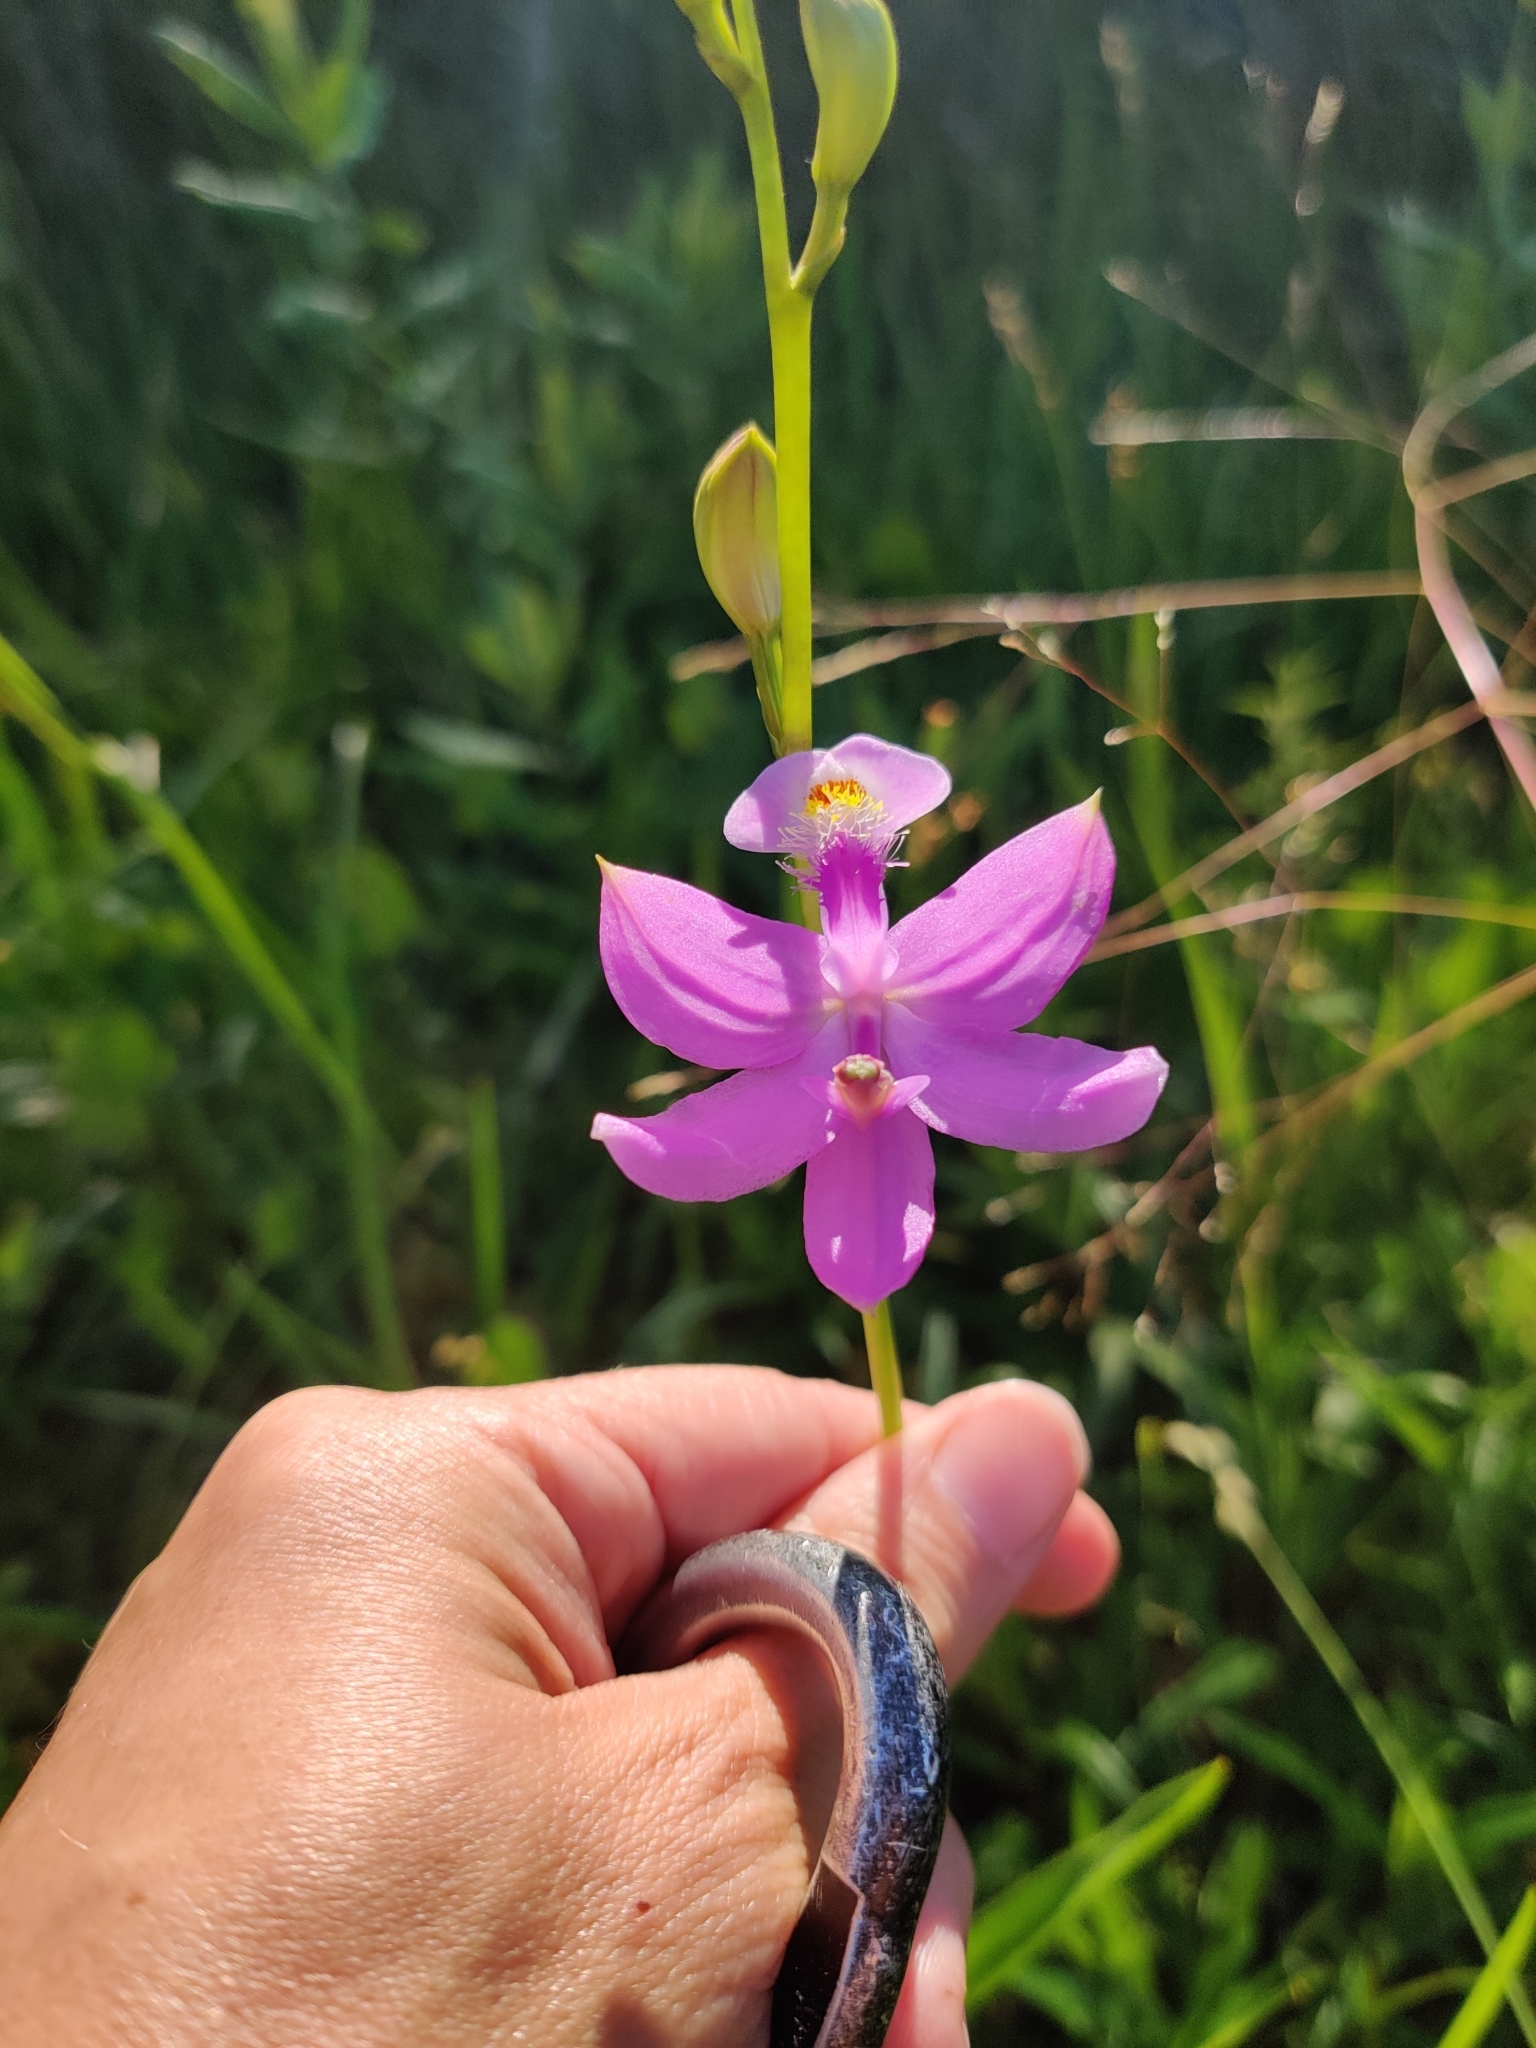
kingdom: Plantae
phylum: Tracheophyta
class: Liliopsida
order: Asparagales
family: Orchidaceae
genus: Calopogon
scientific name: Calopogon tuberosus
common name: Grass-pink
